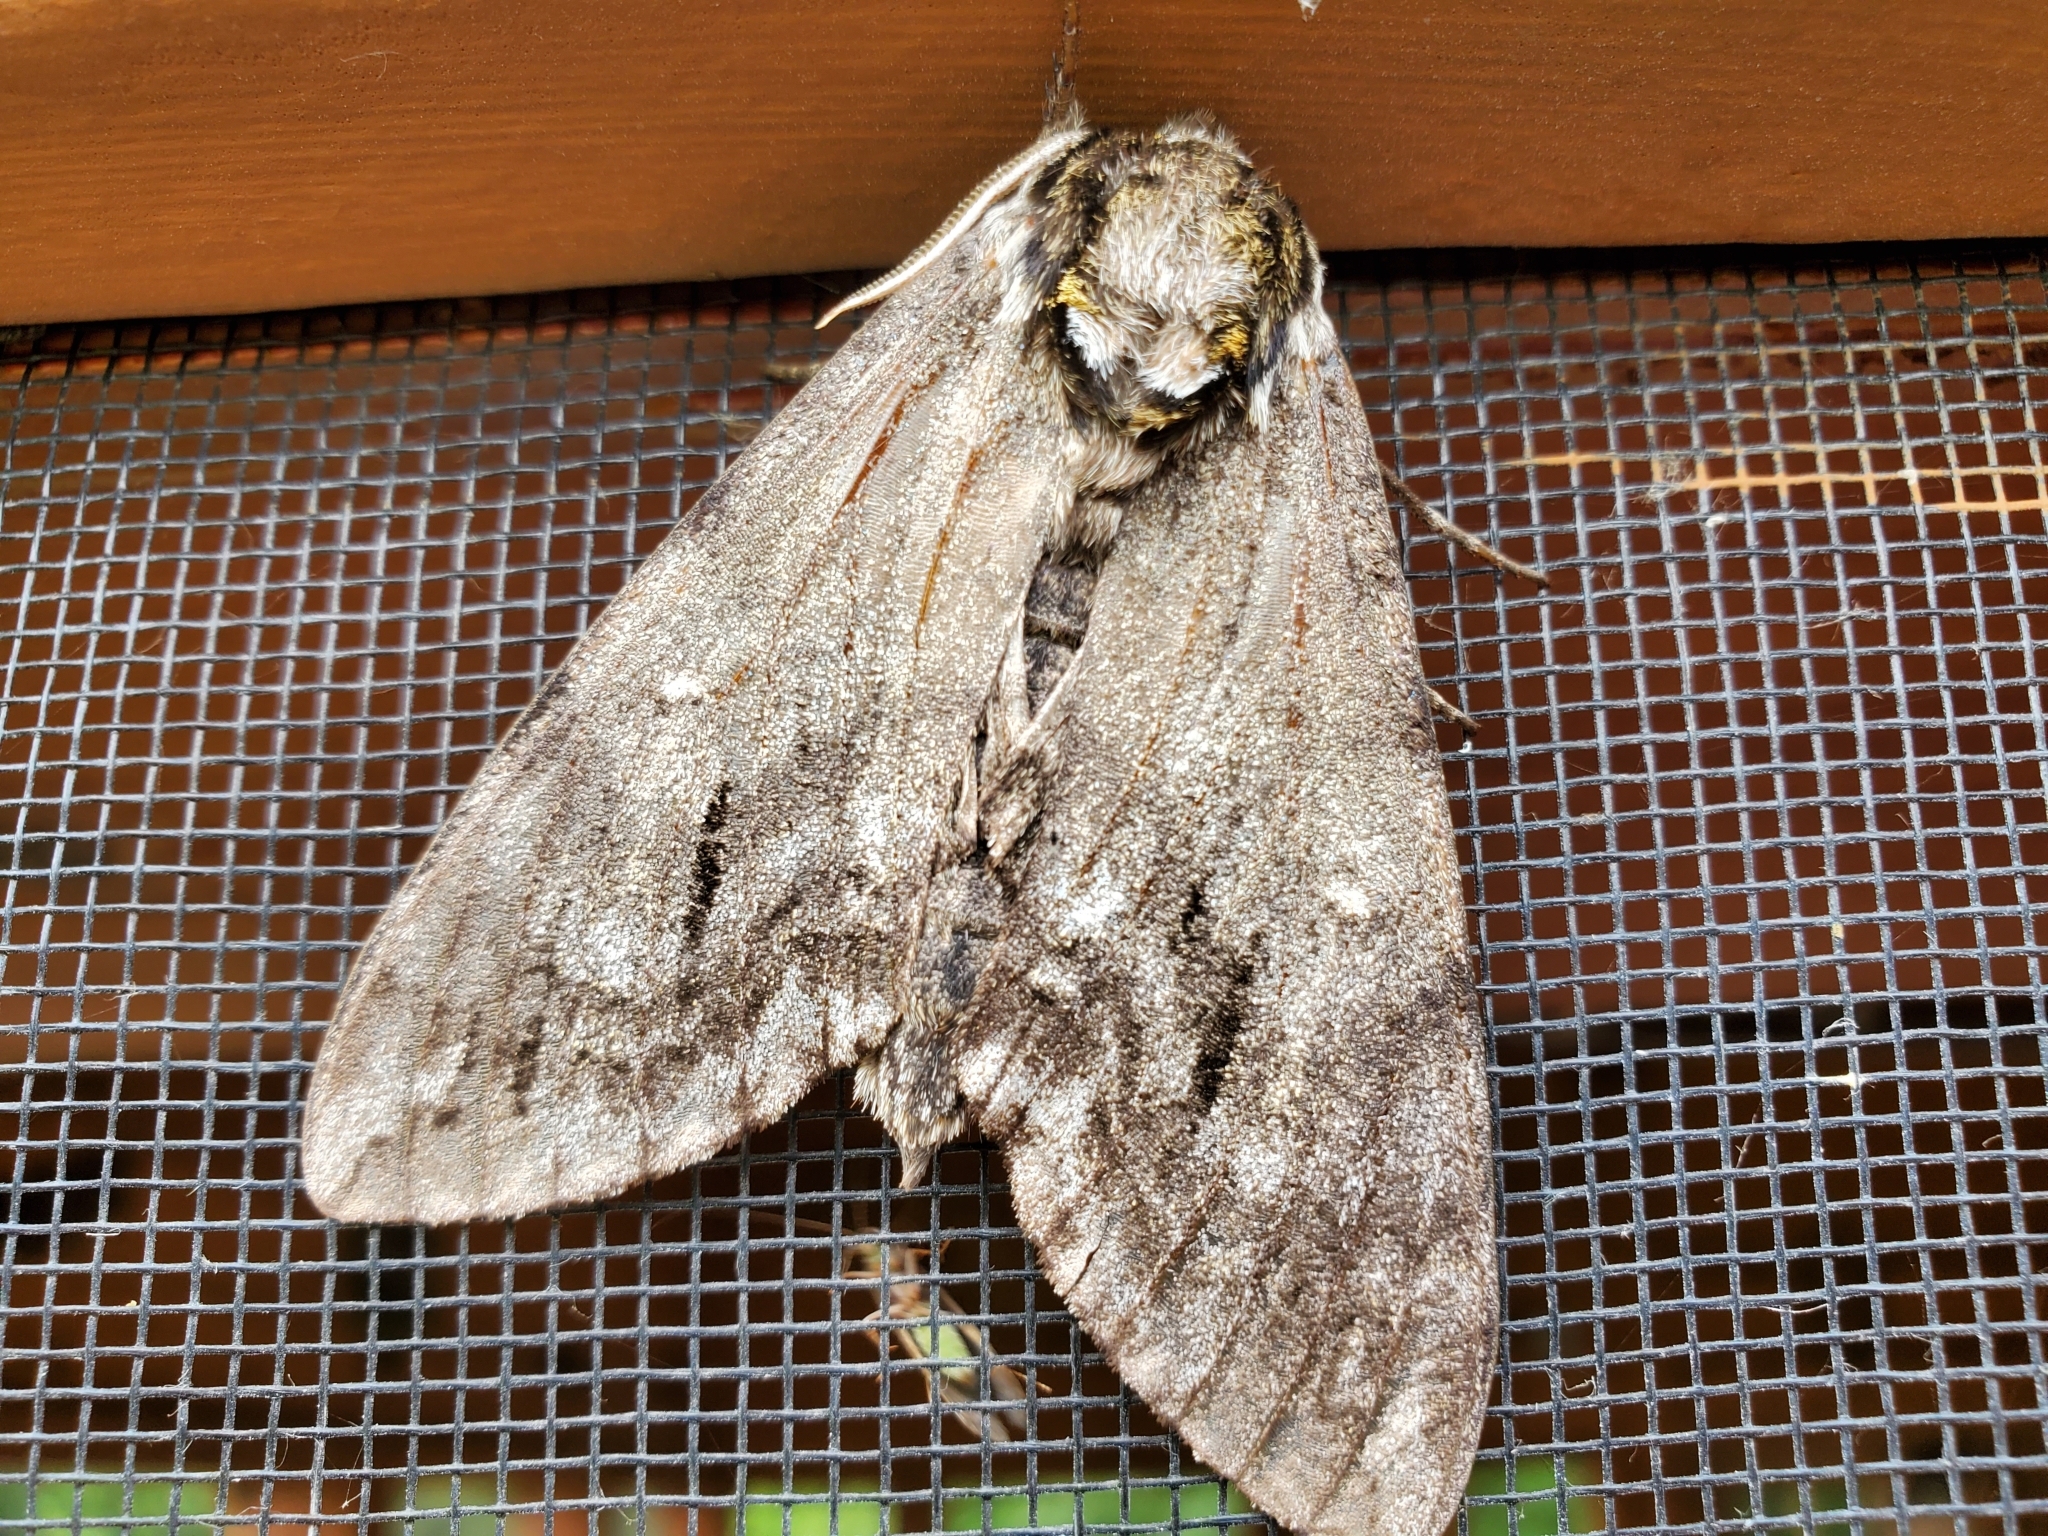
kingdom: Animalia
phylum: Arthropoda
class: Insecta
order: Lepidoptera
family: Sphingidae
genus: Ceratomia
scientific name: Ceratomia undulosa
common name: Waved sphinx
